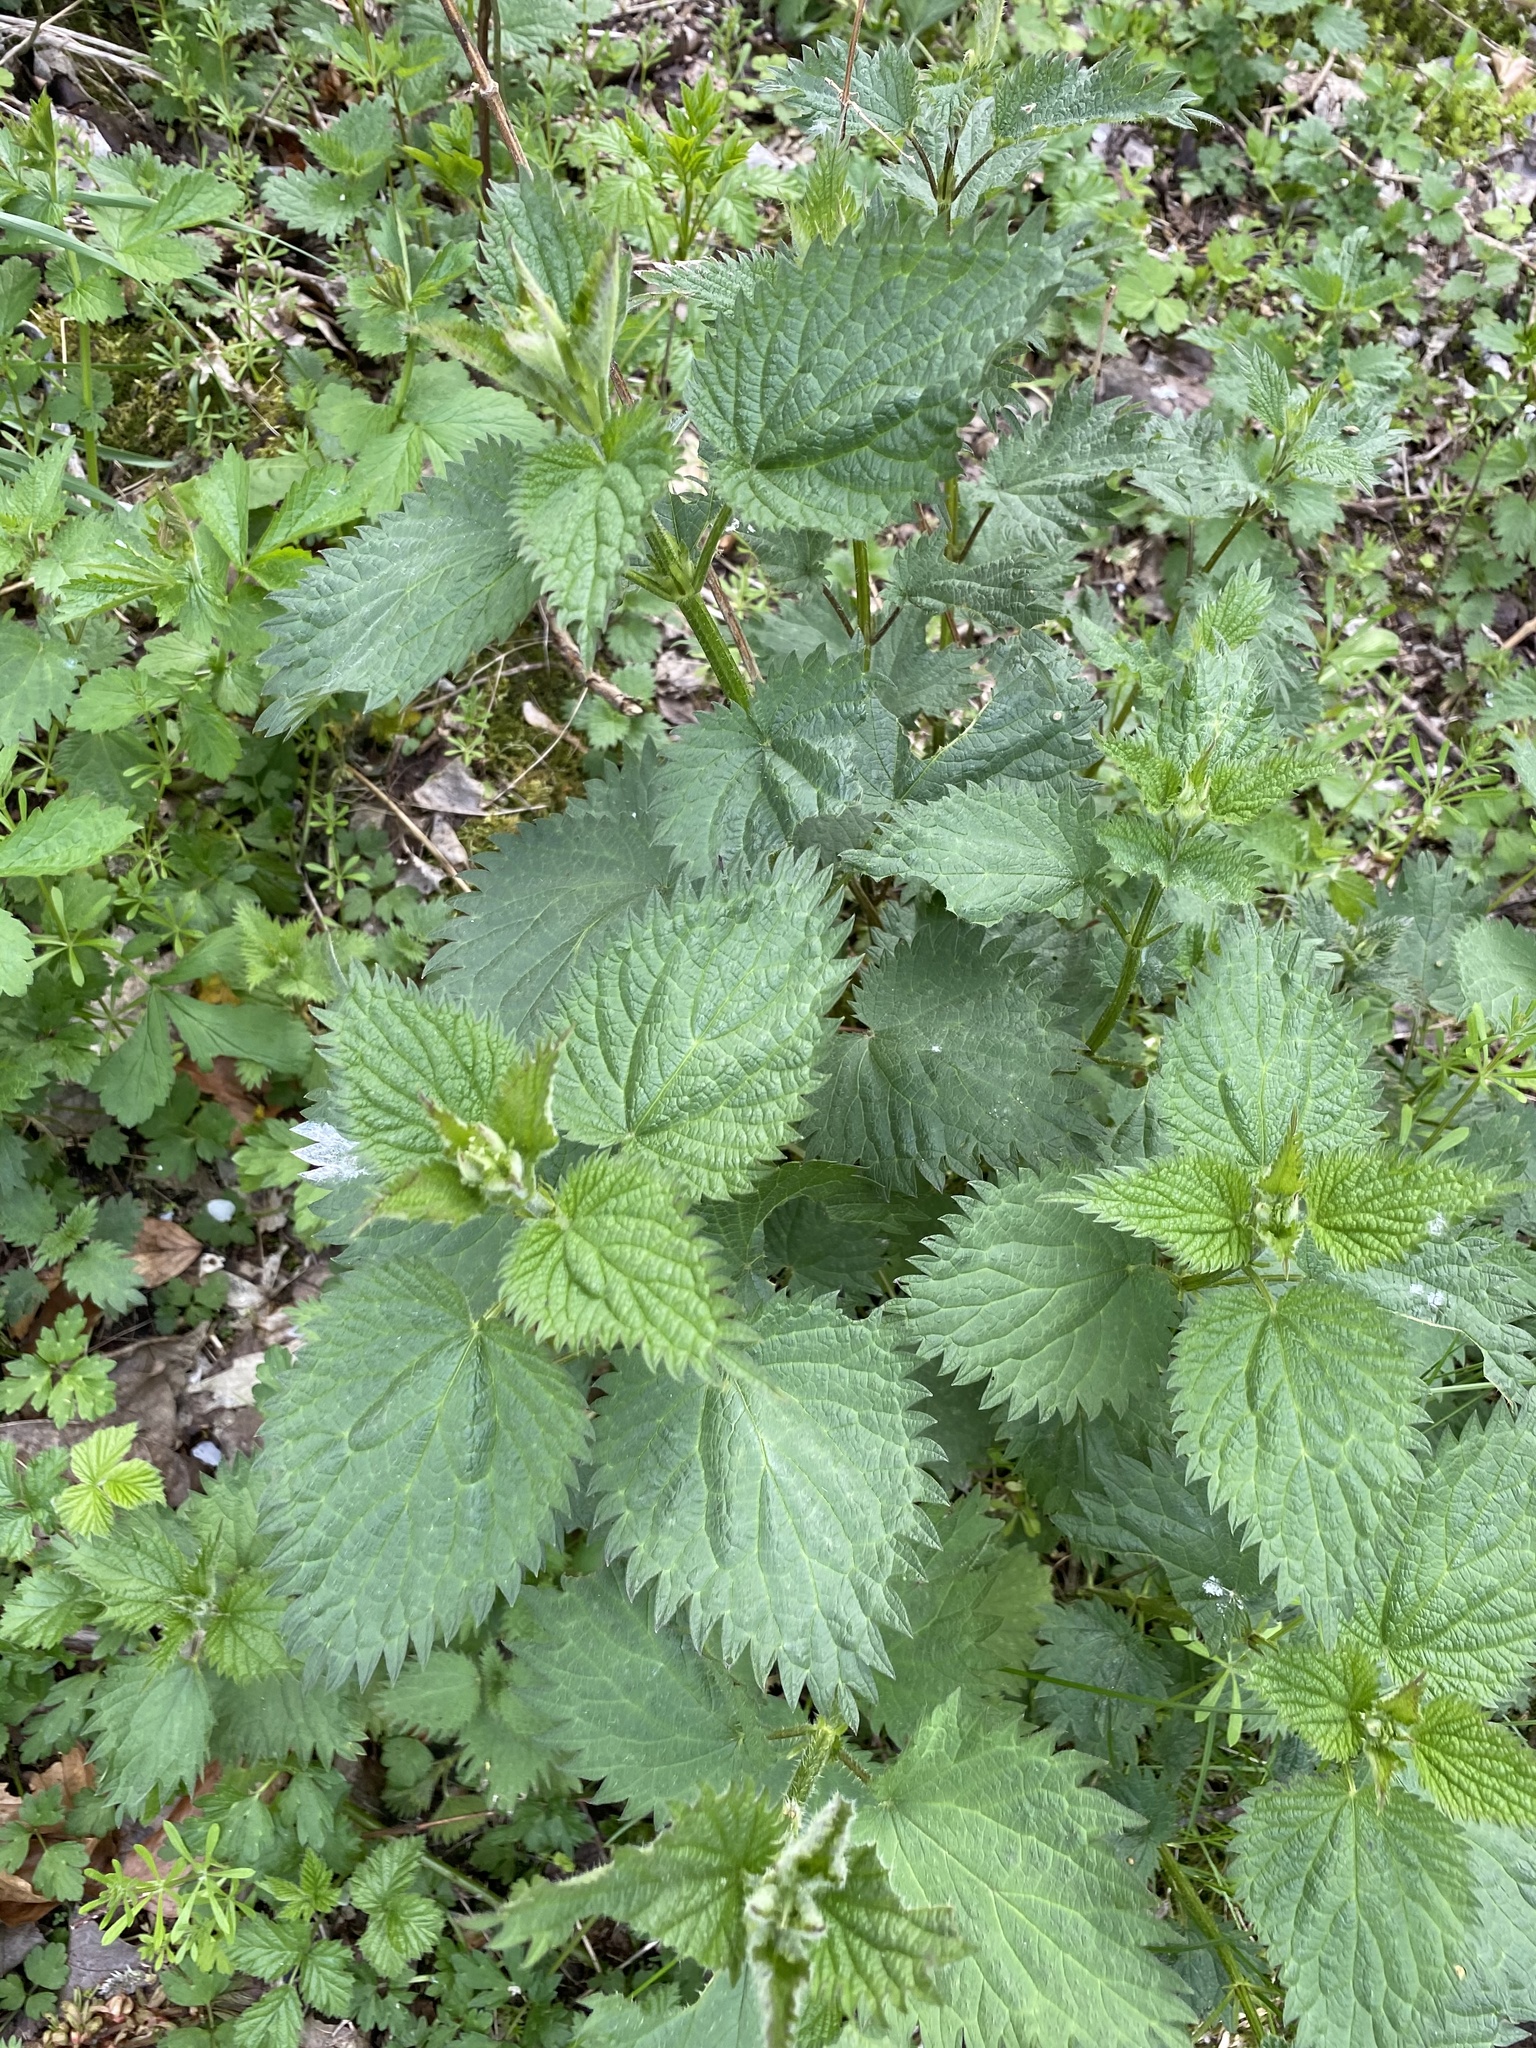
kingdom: Plantae
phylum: Tracheophyta
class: Magnoliopsida
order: Rosales
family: Urticaceae
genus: Urtica
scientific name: Urtica dioica
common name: Common nettle
